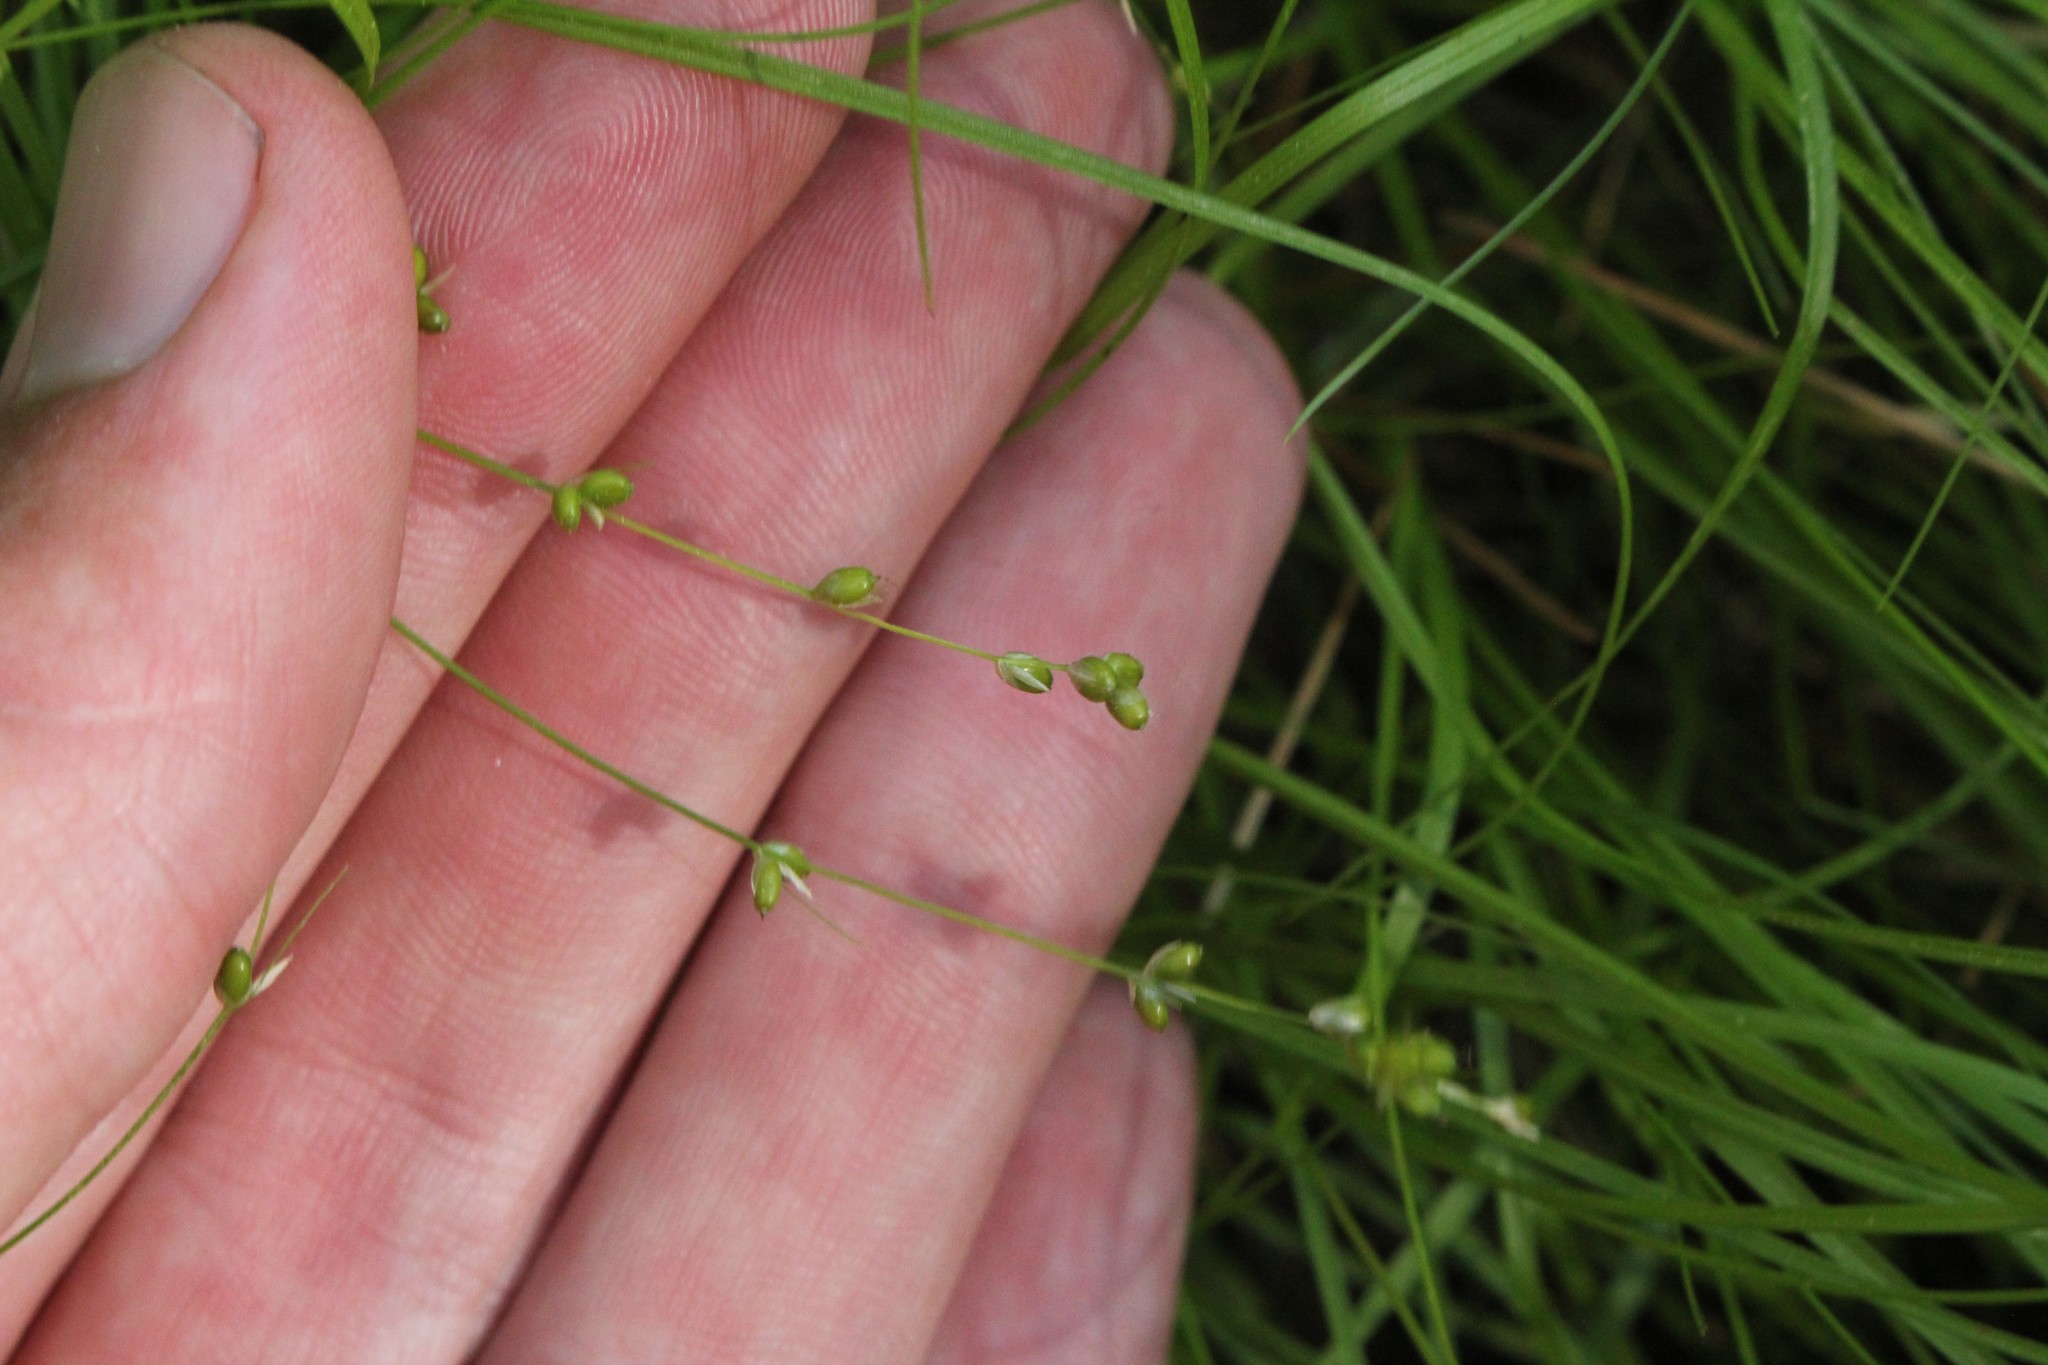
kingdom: Plantae
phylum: Tracheophyta
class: Liliopsida
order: Poales
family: Cyperaceae
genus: Carex
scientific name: Carex disperma
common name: Short-leaved sedge
